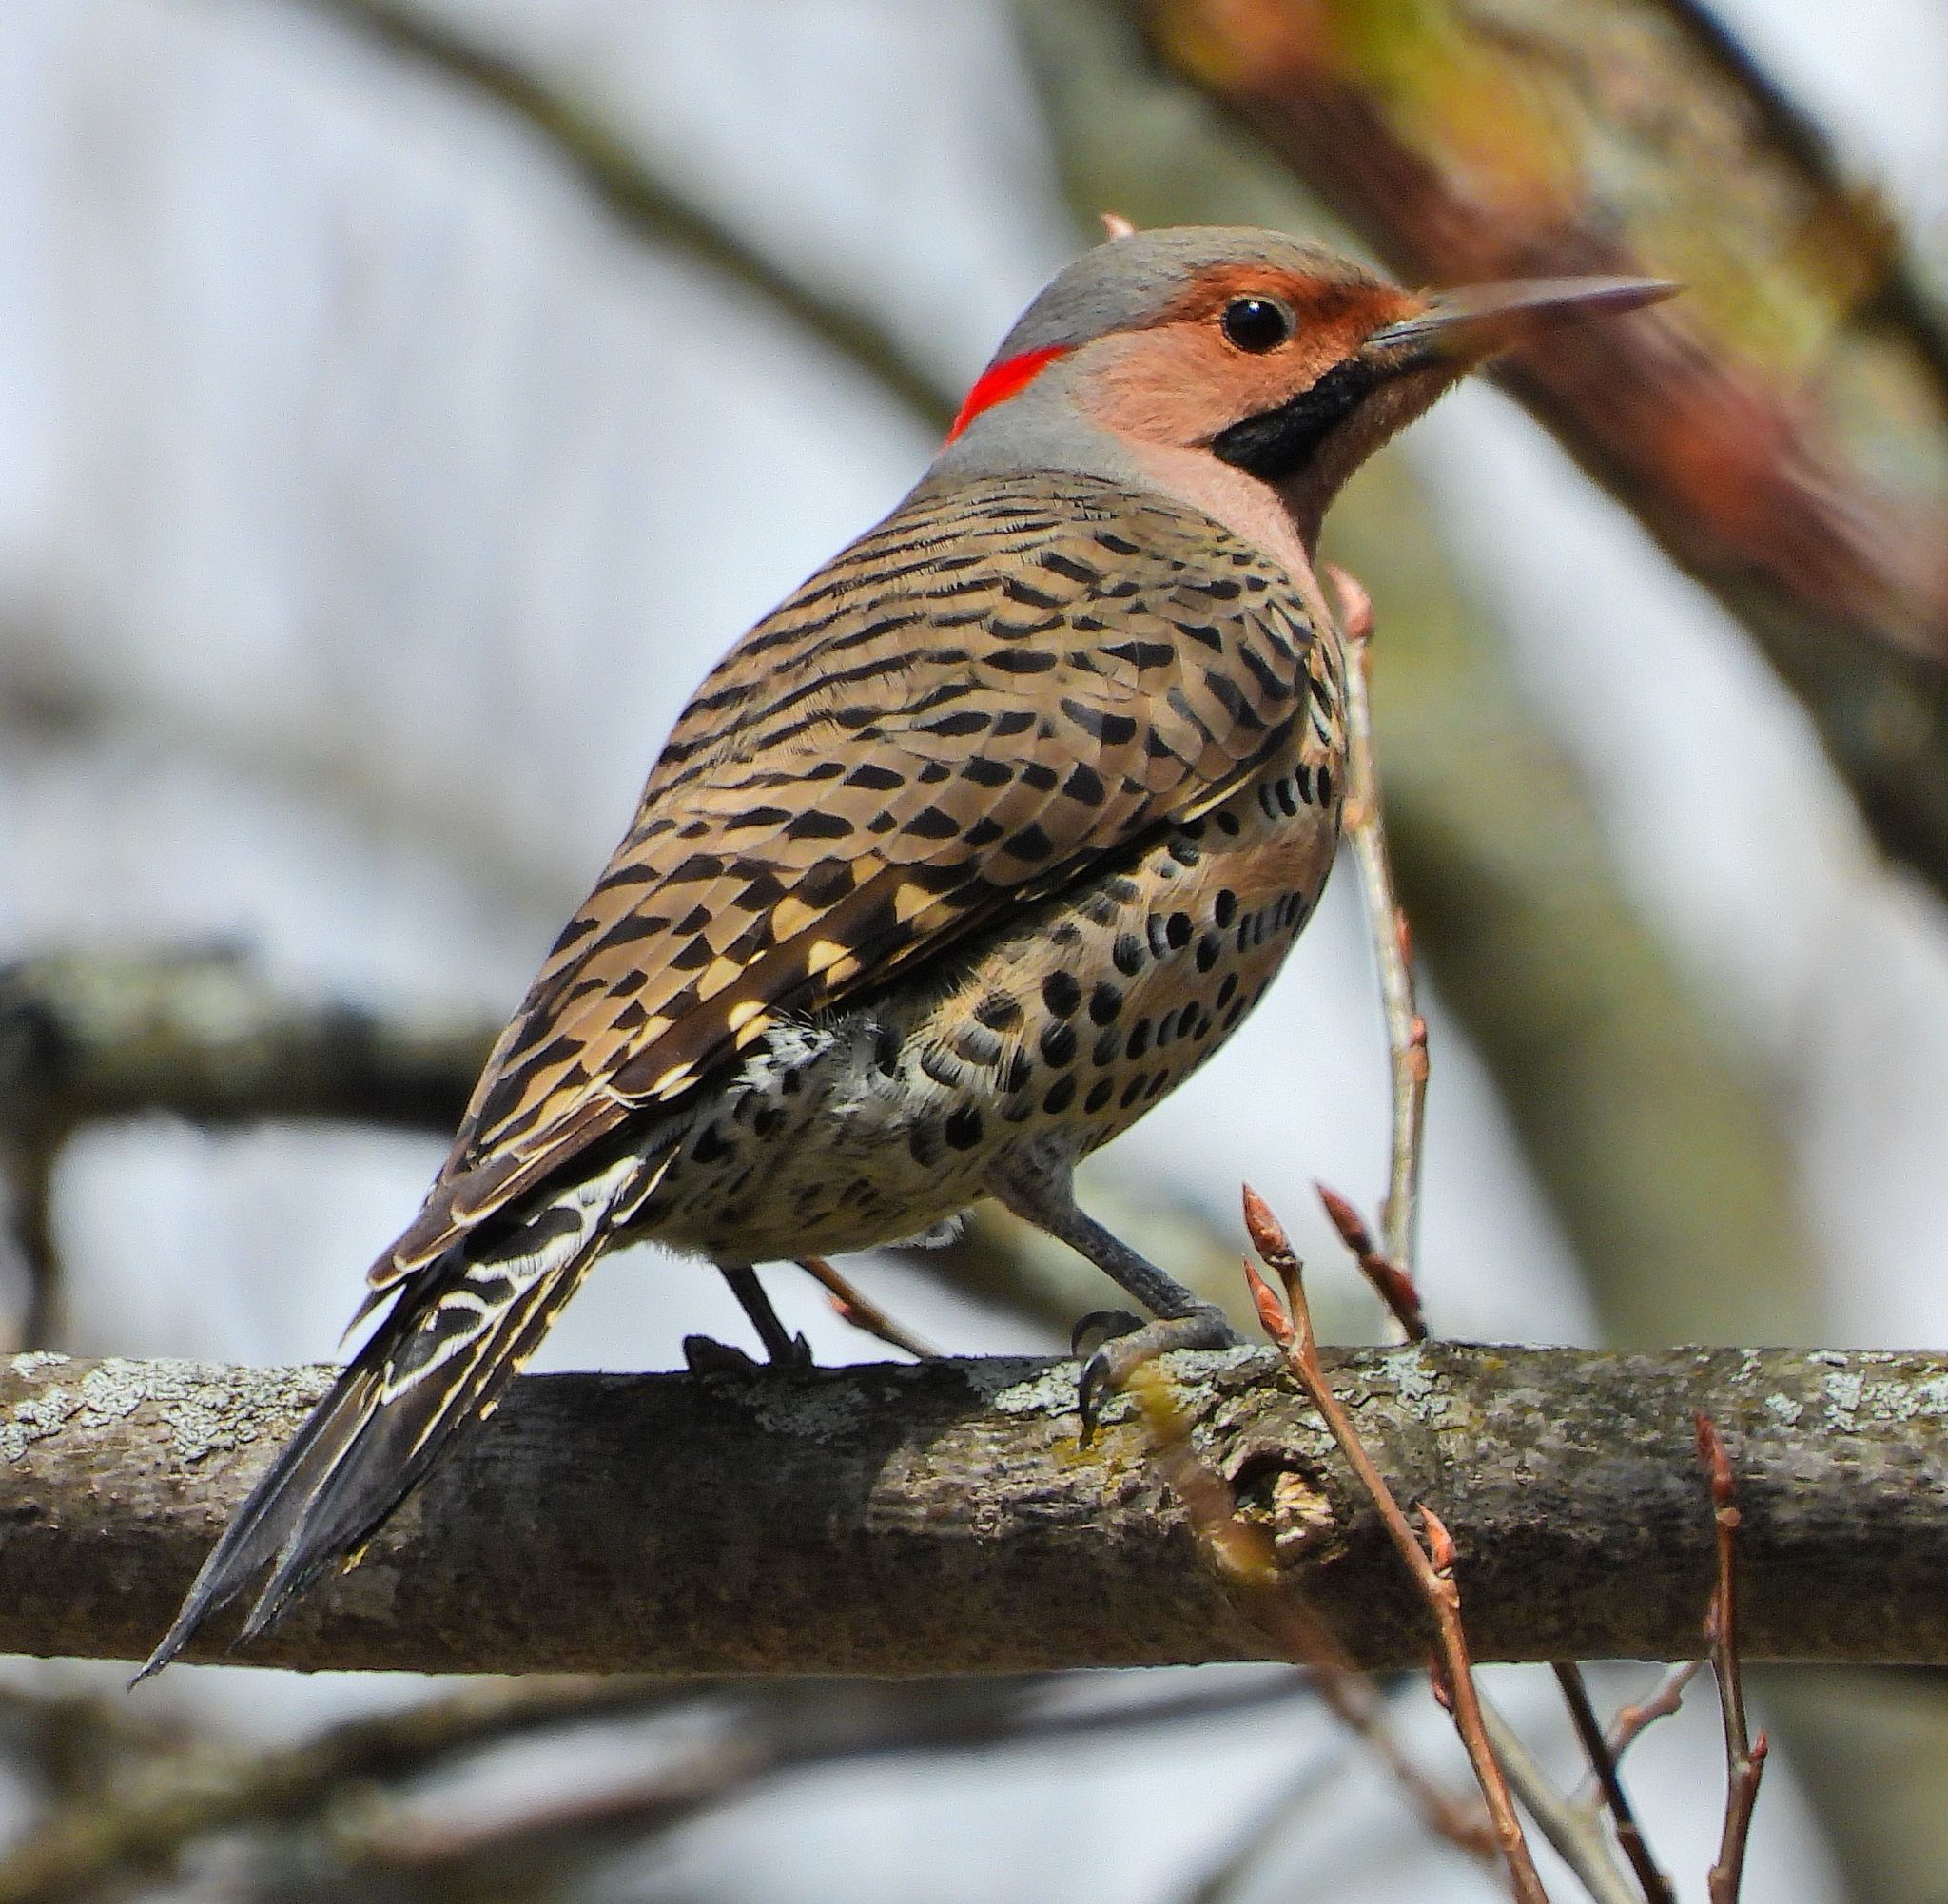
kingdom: Animalia
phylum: Chordata
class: Aves
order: Piciformes
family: Picidae
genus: Colaptes
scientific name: Colaptes auratus
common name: Northern flicker
